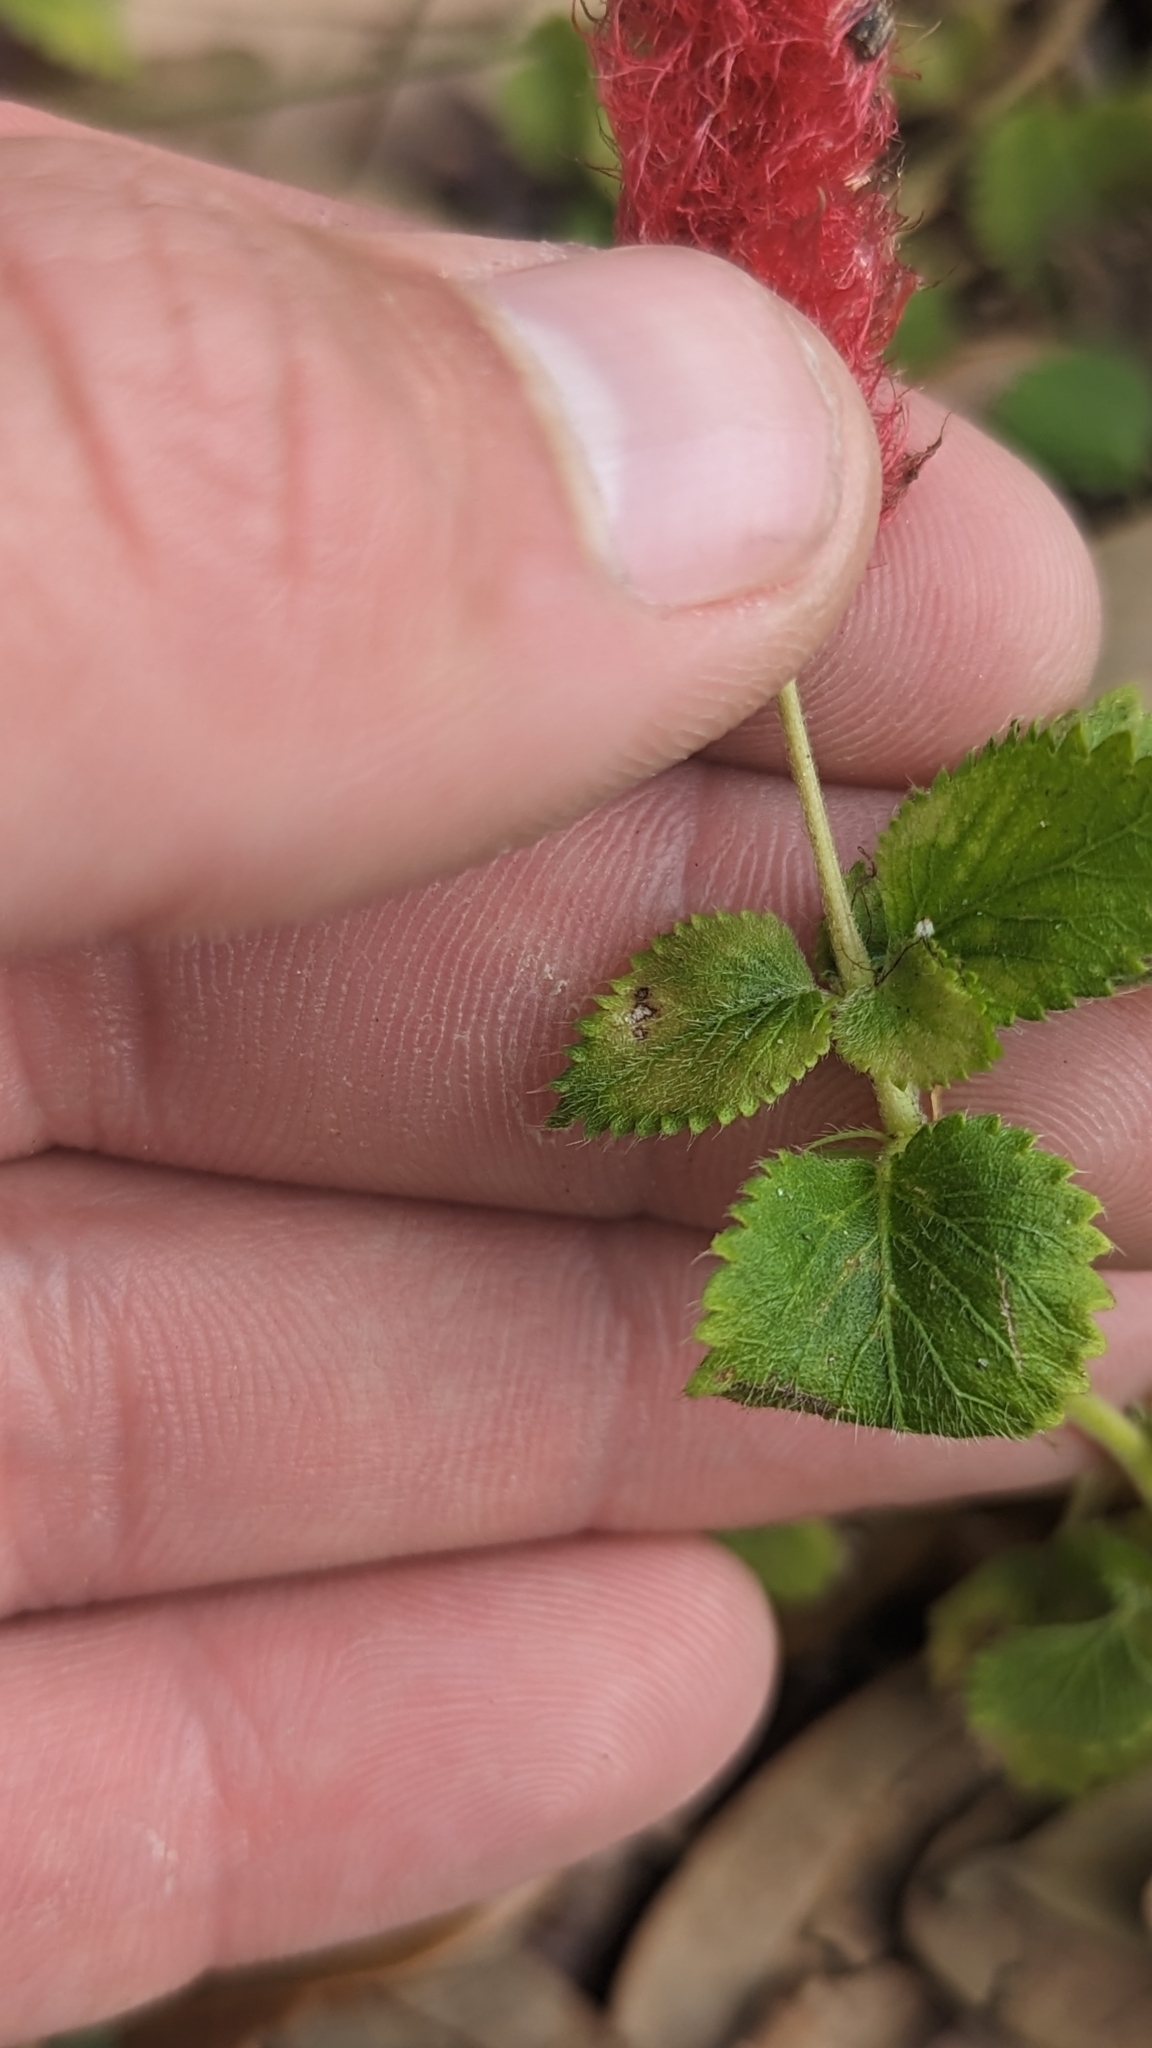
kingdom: Plantae
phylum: Tracheophyta
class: Magnoliopsida
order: Malpighiales
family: Euphorbiaceae
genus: Acalypha
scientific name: Acalypha herzogiana
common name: Dwarf-cattail
